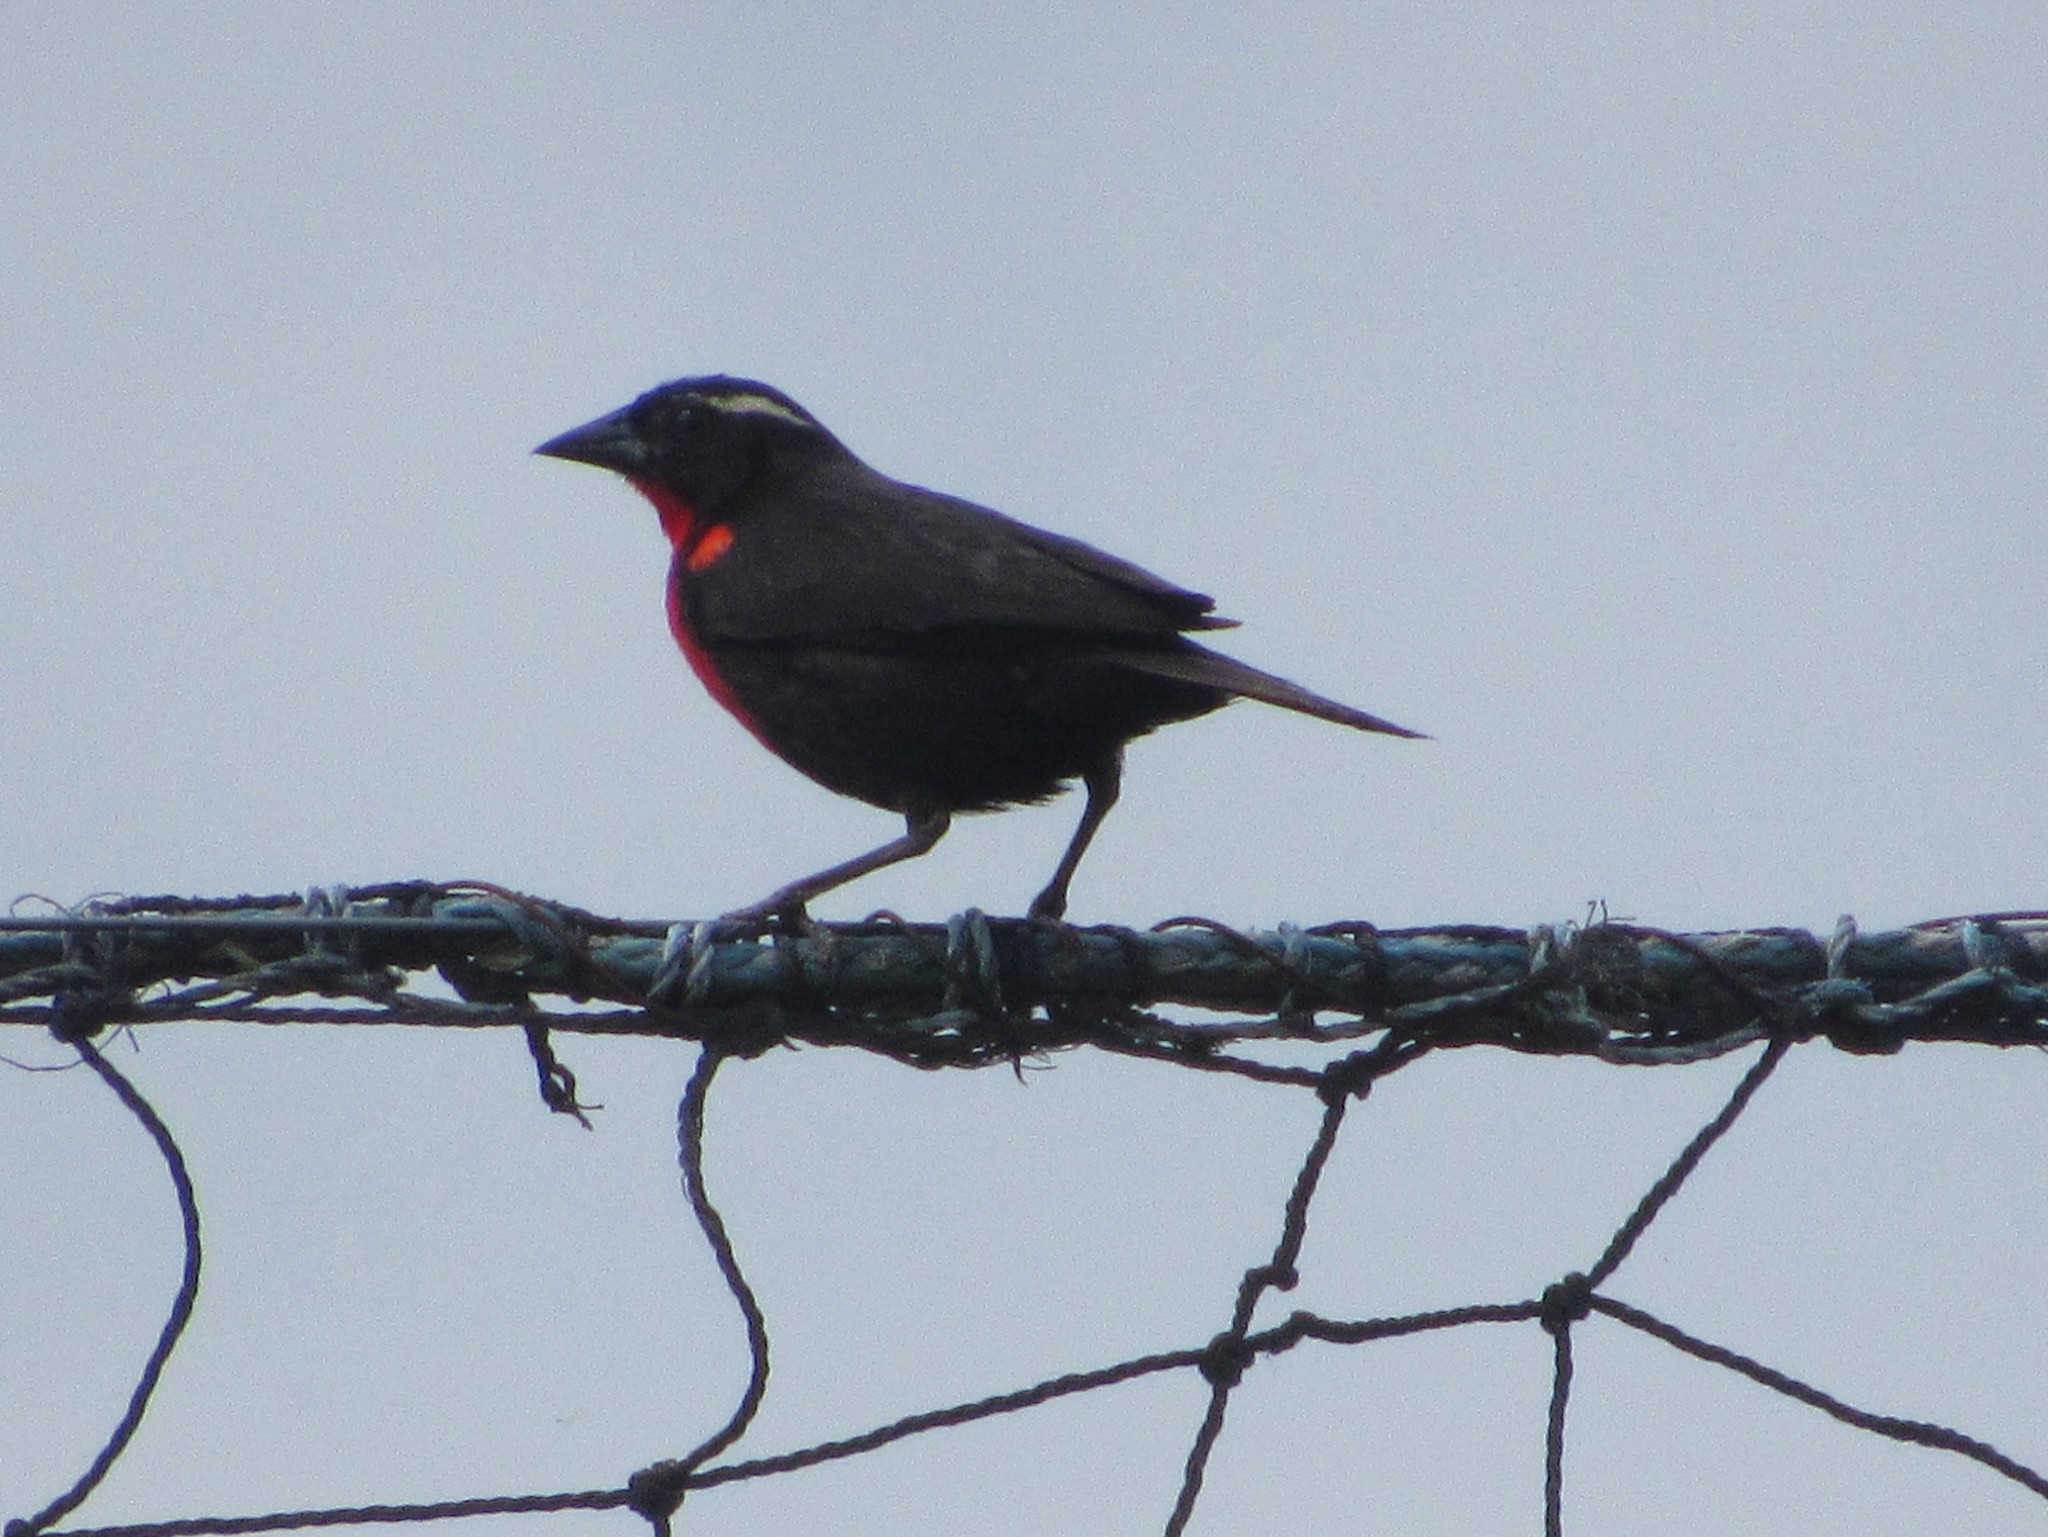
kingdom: Animalia
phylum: Chordata
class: Aves
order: Passeriformes
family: Icteridae
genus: Sturnella
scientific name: Sturnella superciliaris
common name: White-browed blackbird
